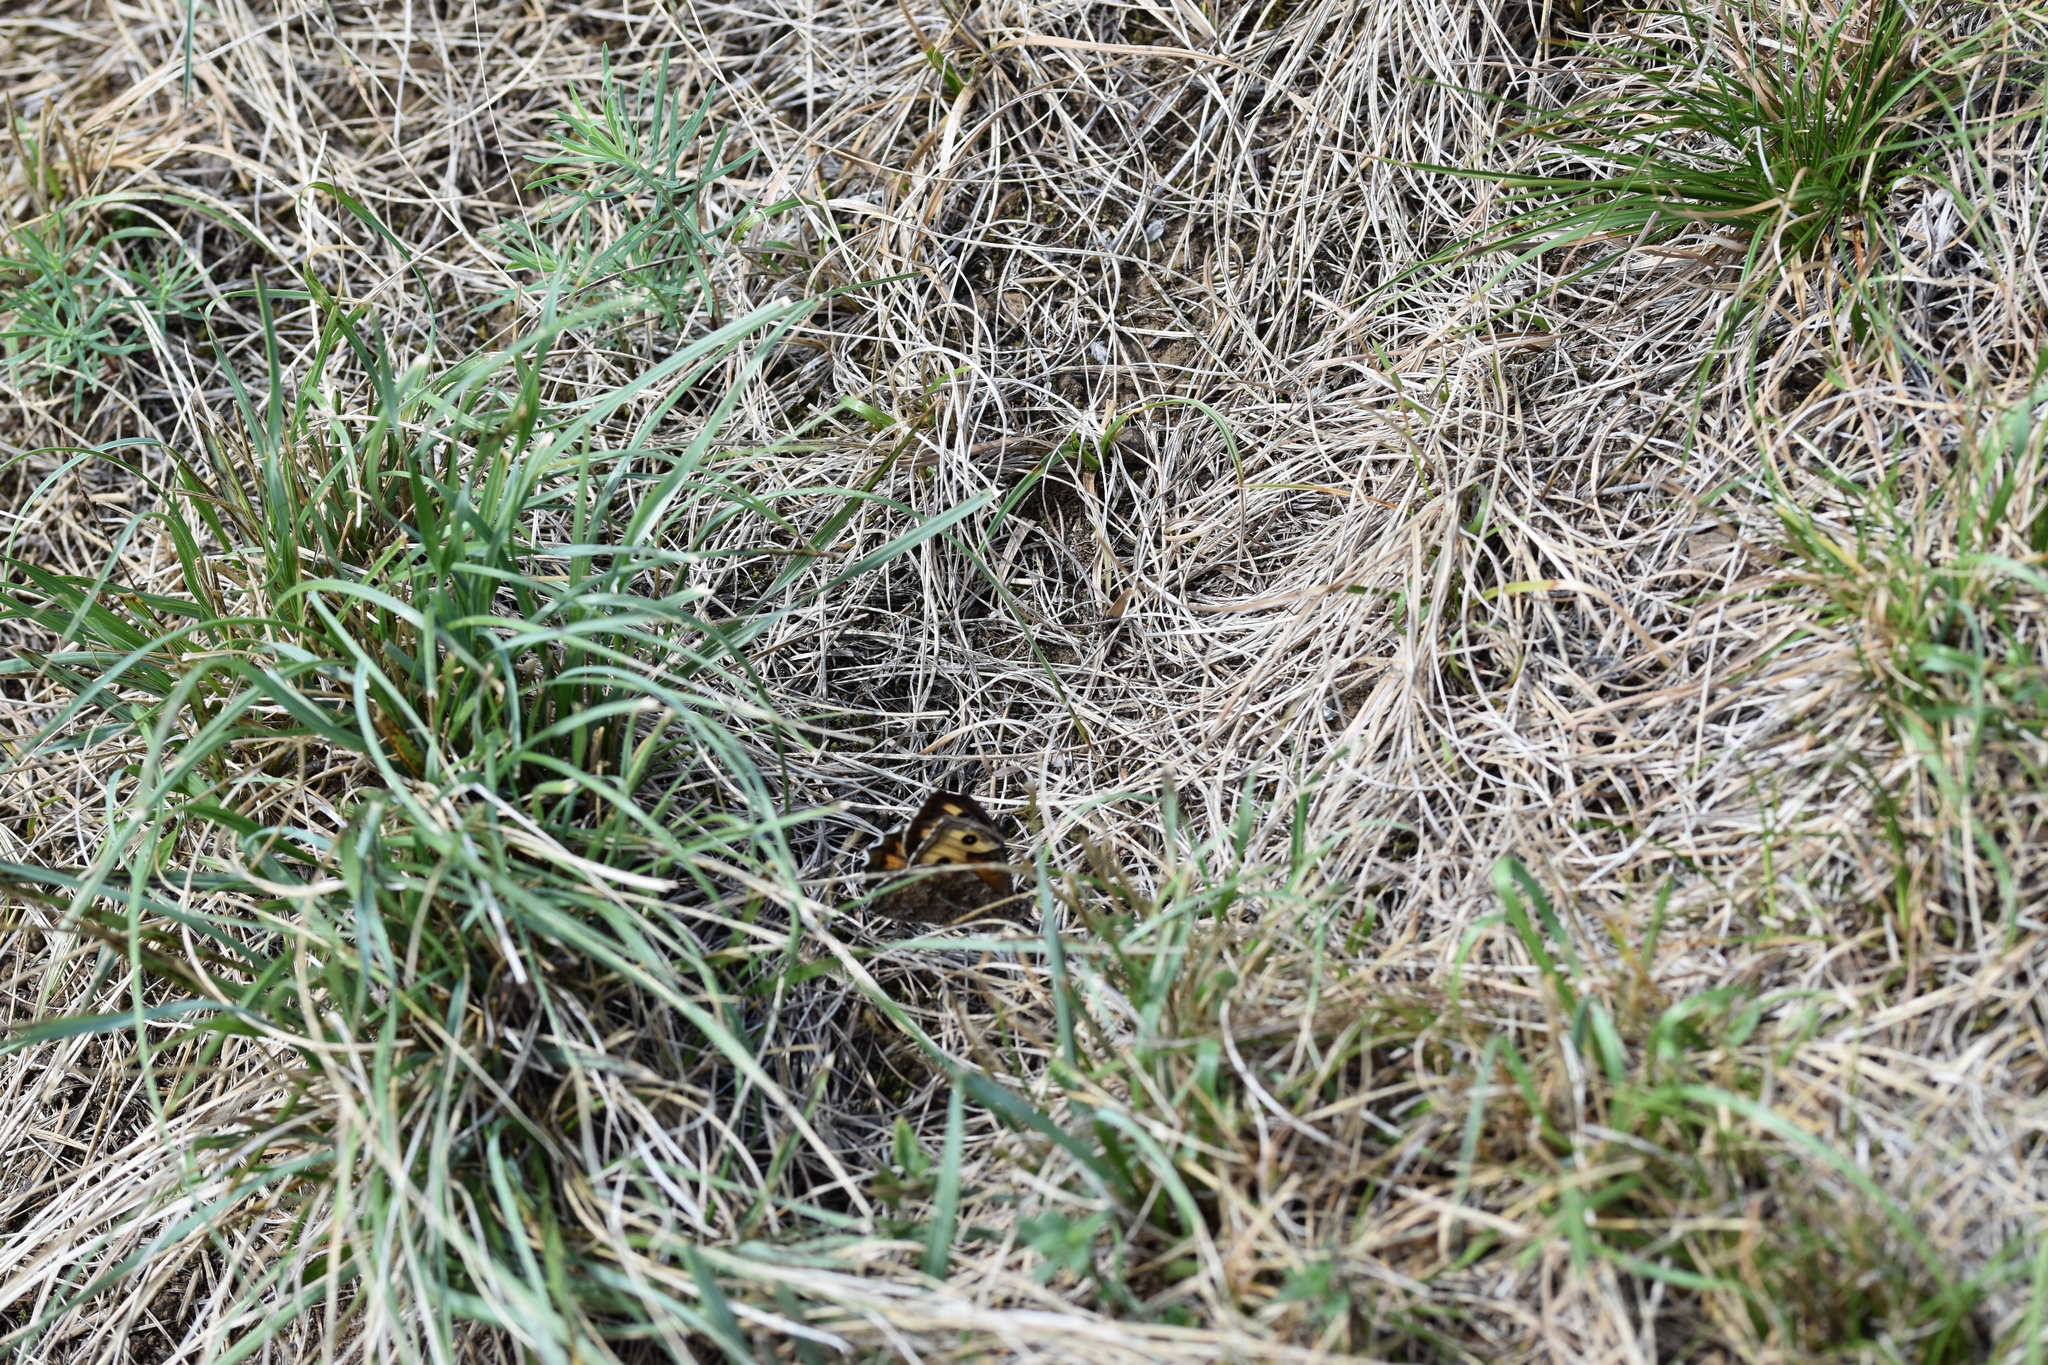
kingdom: Animalia
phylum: Arthropoda
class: Insecta
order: Lepidoptera
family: Nymphalidae
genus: Hipparchia
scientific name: Hipparchia semele
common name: Grayling
